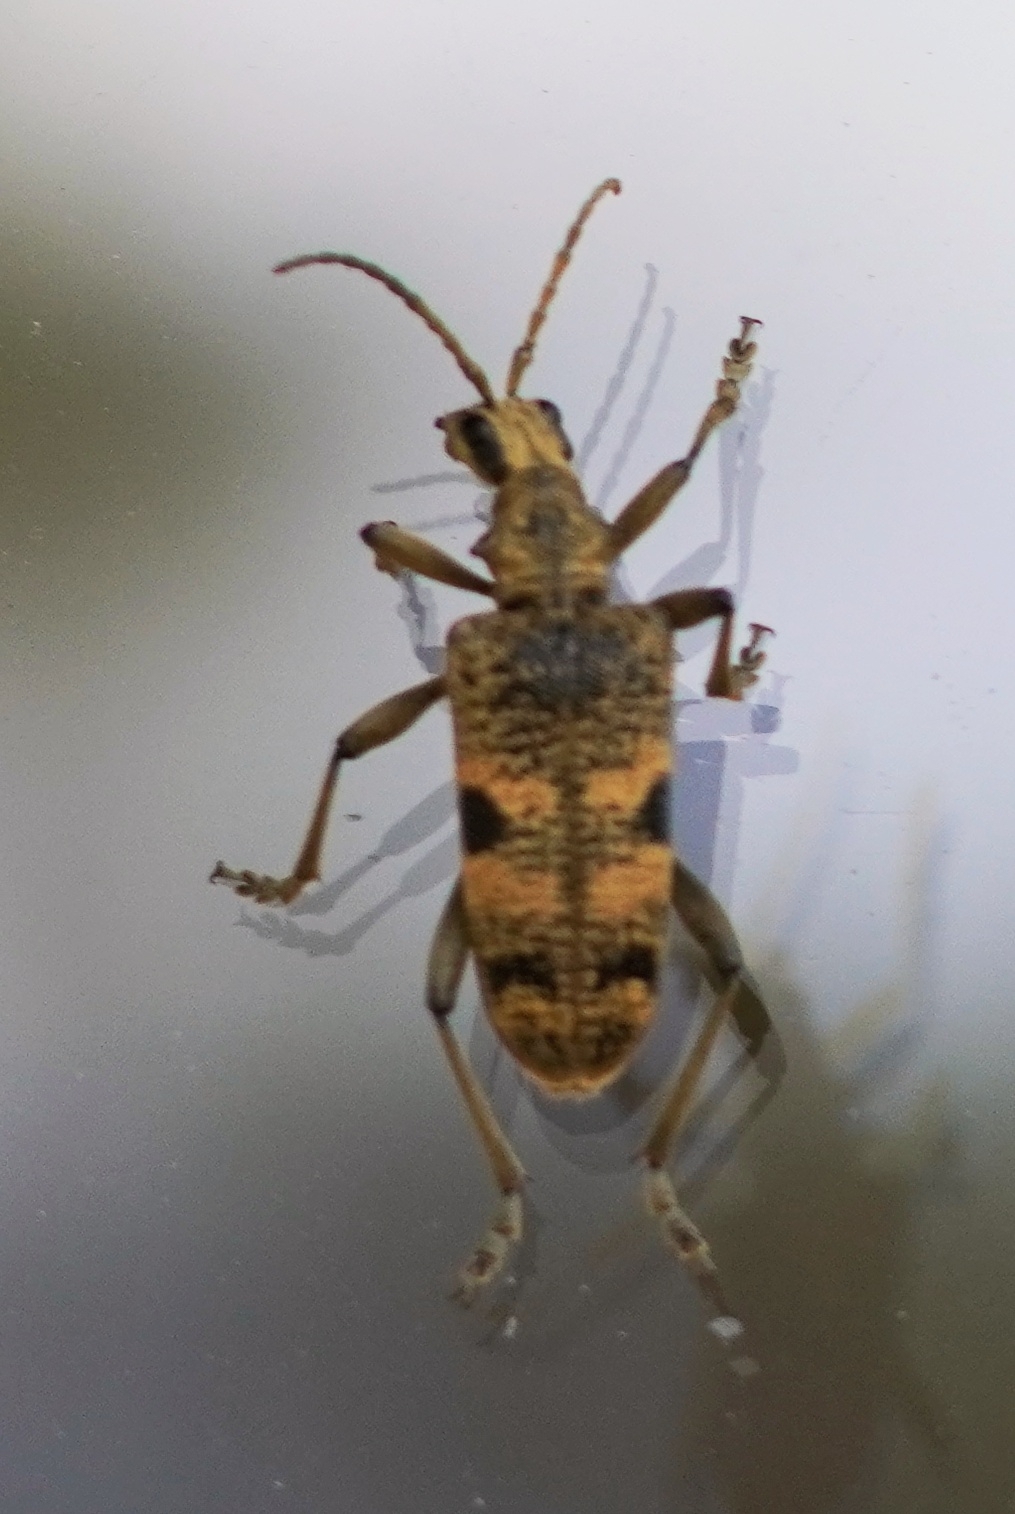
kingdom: Animalia
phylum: Arthropoda
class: Insecta
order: Coleoptera
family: Cerambycidae
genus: Rhagium
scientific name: Rhagium mordax
